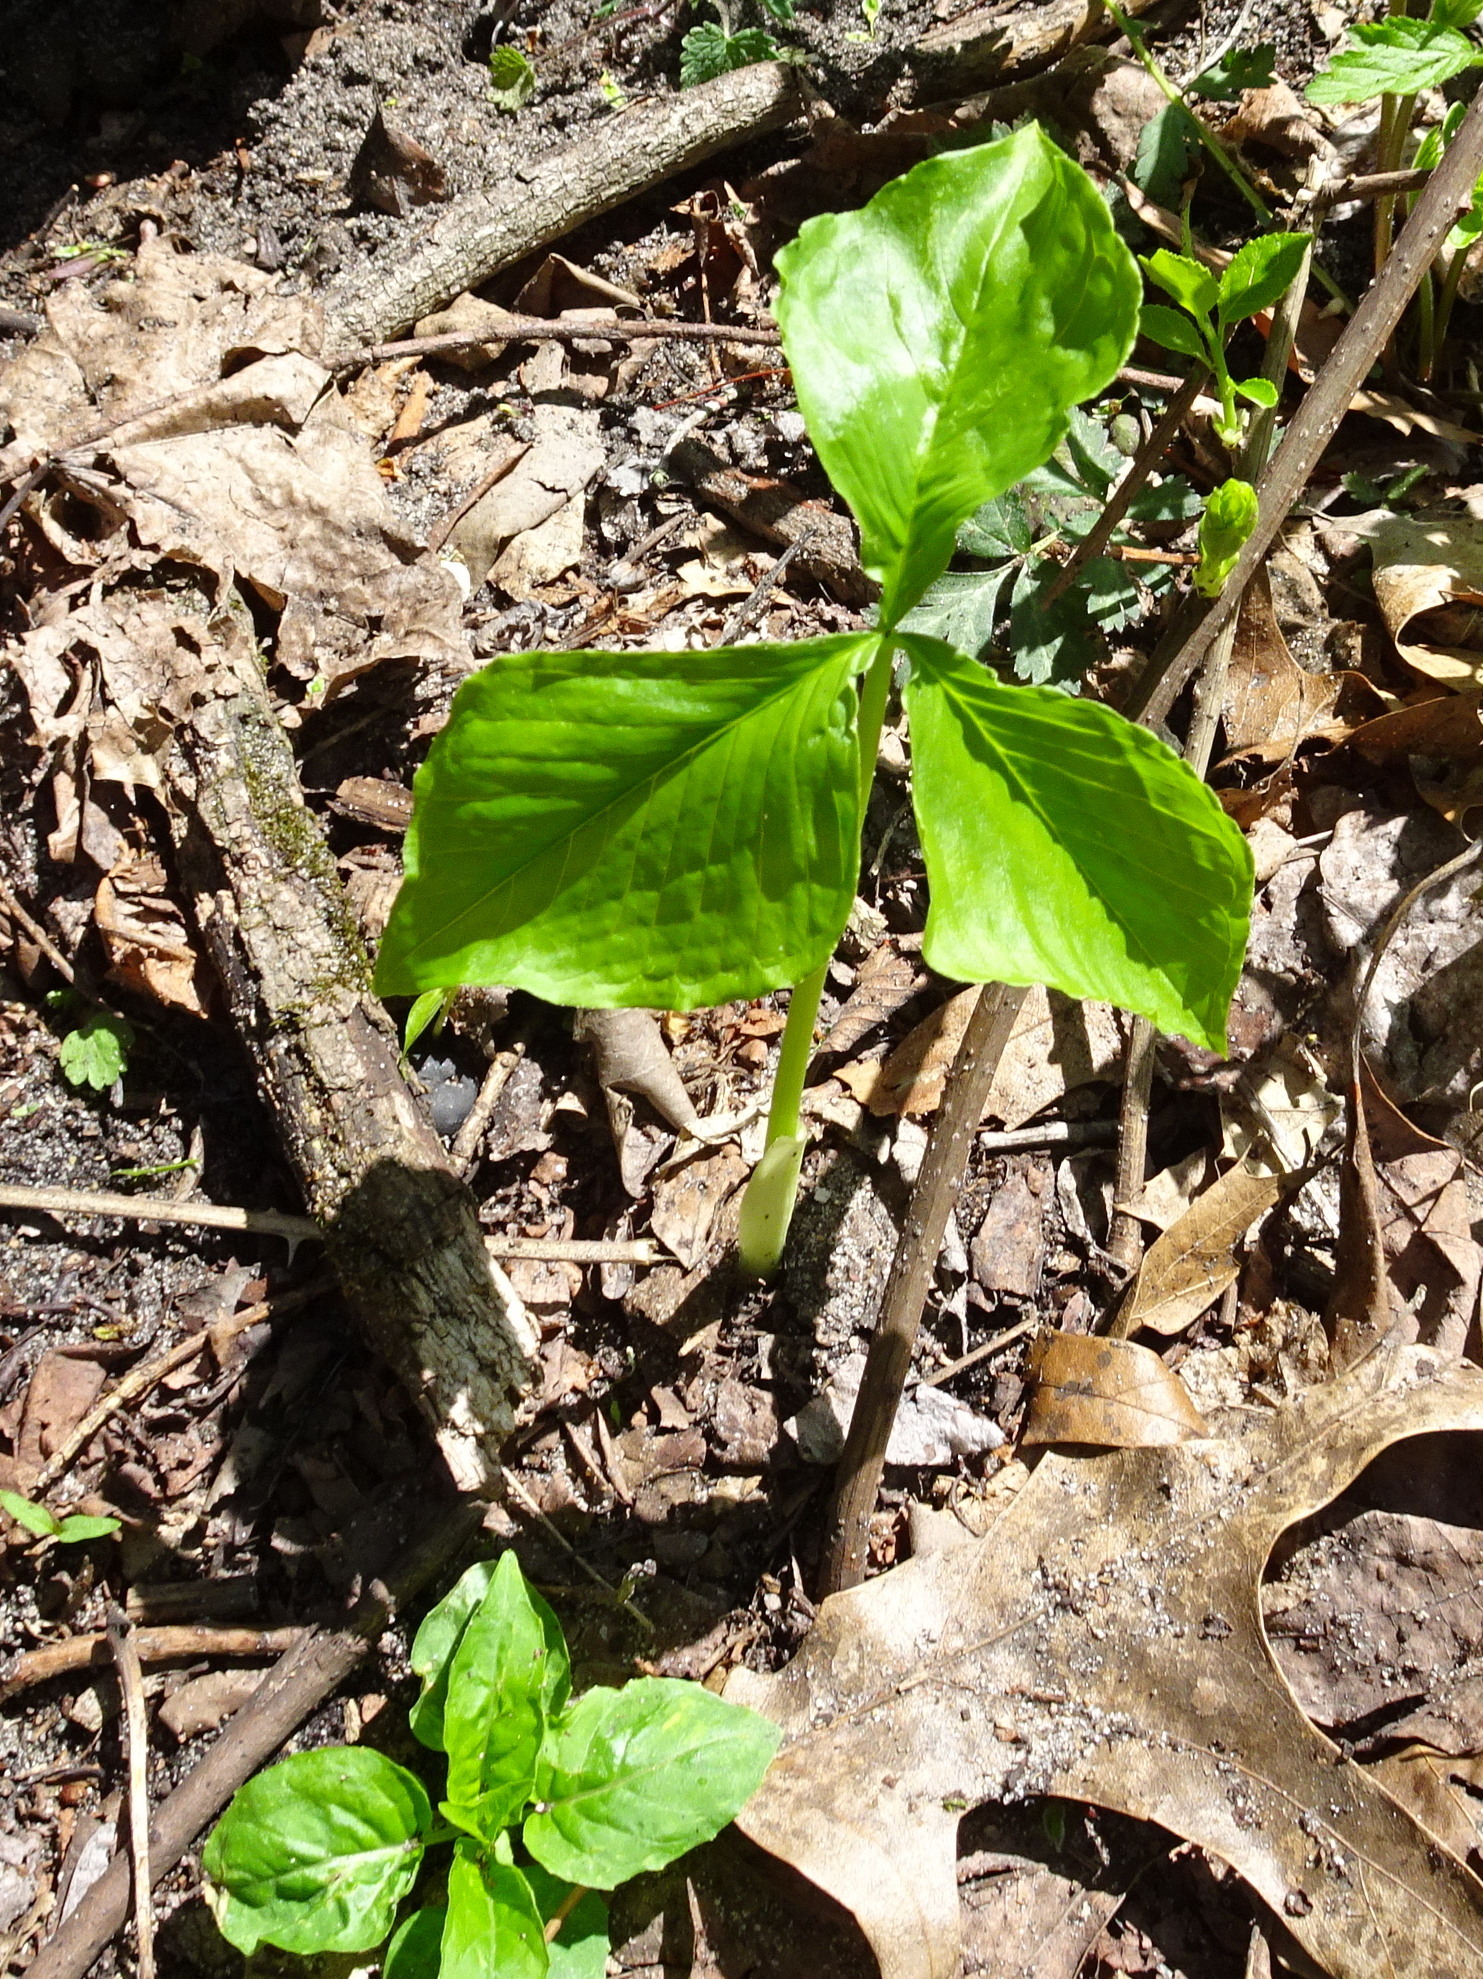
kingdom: Plantae
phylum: Tracheophyta
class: Liliopsida
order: Alismatales
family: Araceae
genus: Arisaema
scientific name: Arisaema triphyllum
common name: Jack-in-the-pulpit
